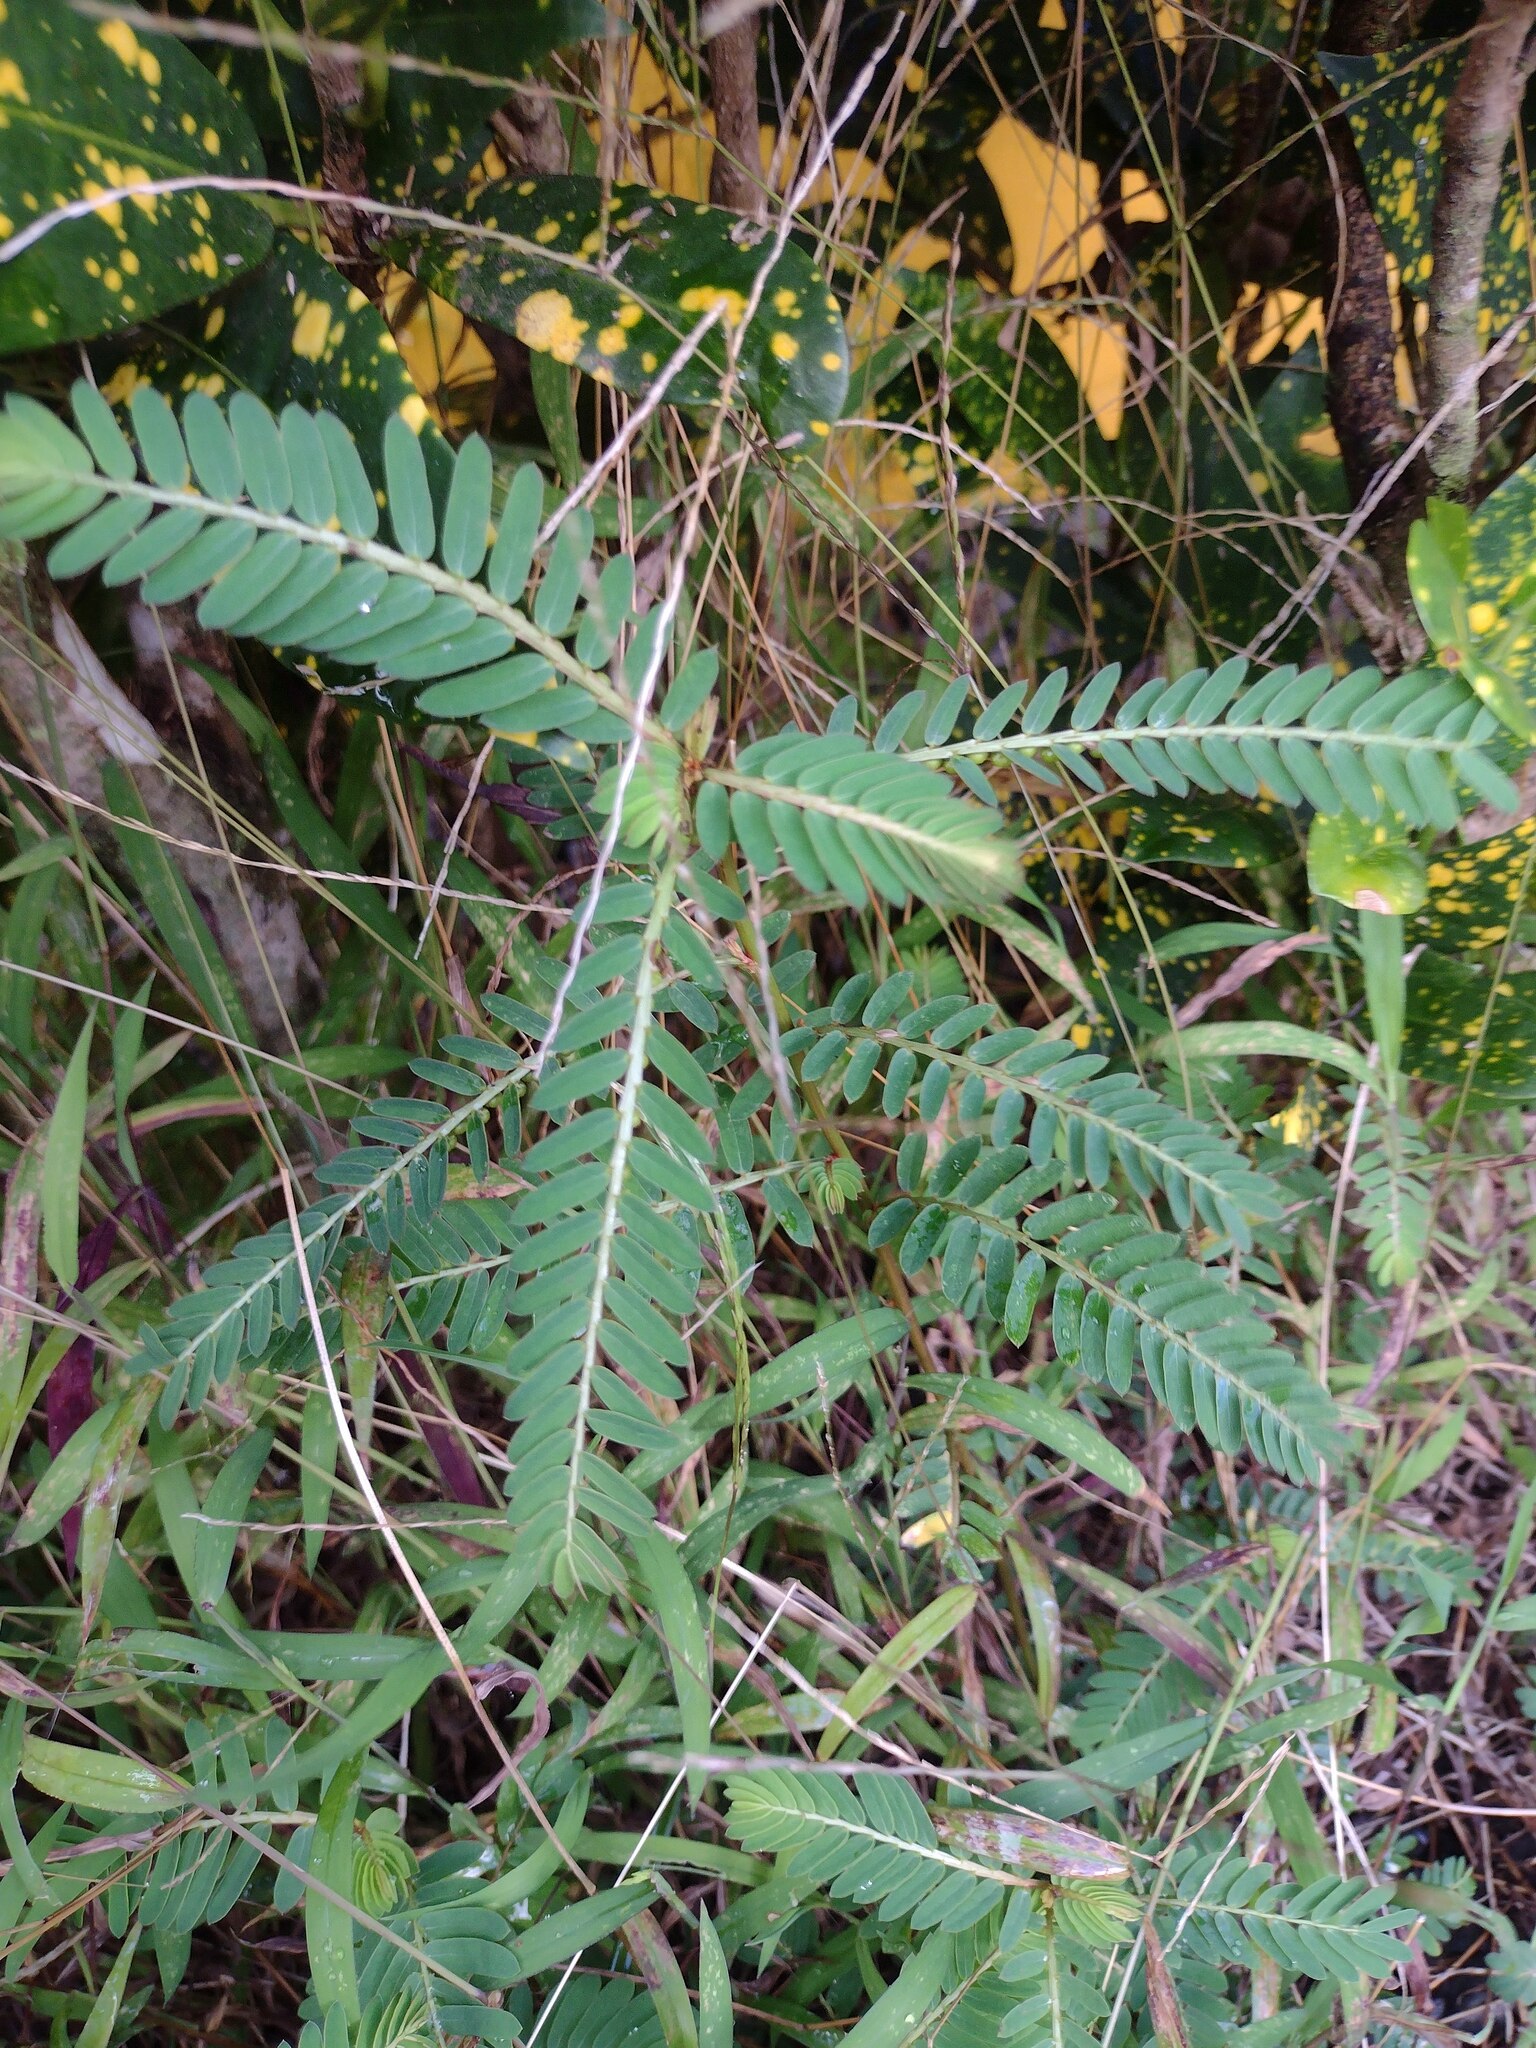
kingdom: Plantae
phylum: Tracheophyta
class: Magnoliopsida
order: Malpighiales
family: Phyllanthaceae
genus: Phyllanthus
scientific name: Phyllanthus urinaria
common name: Chamber bitter
